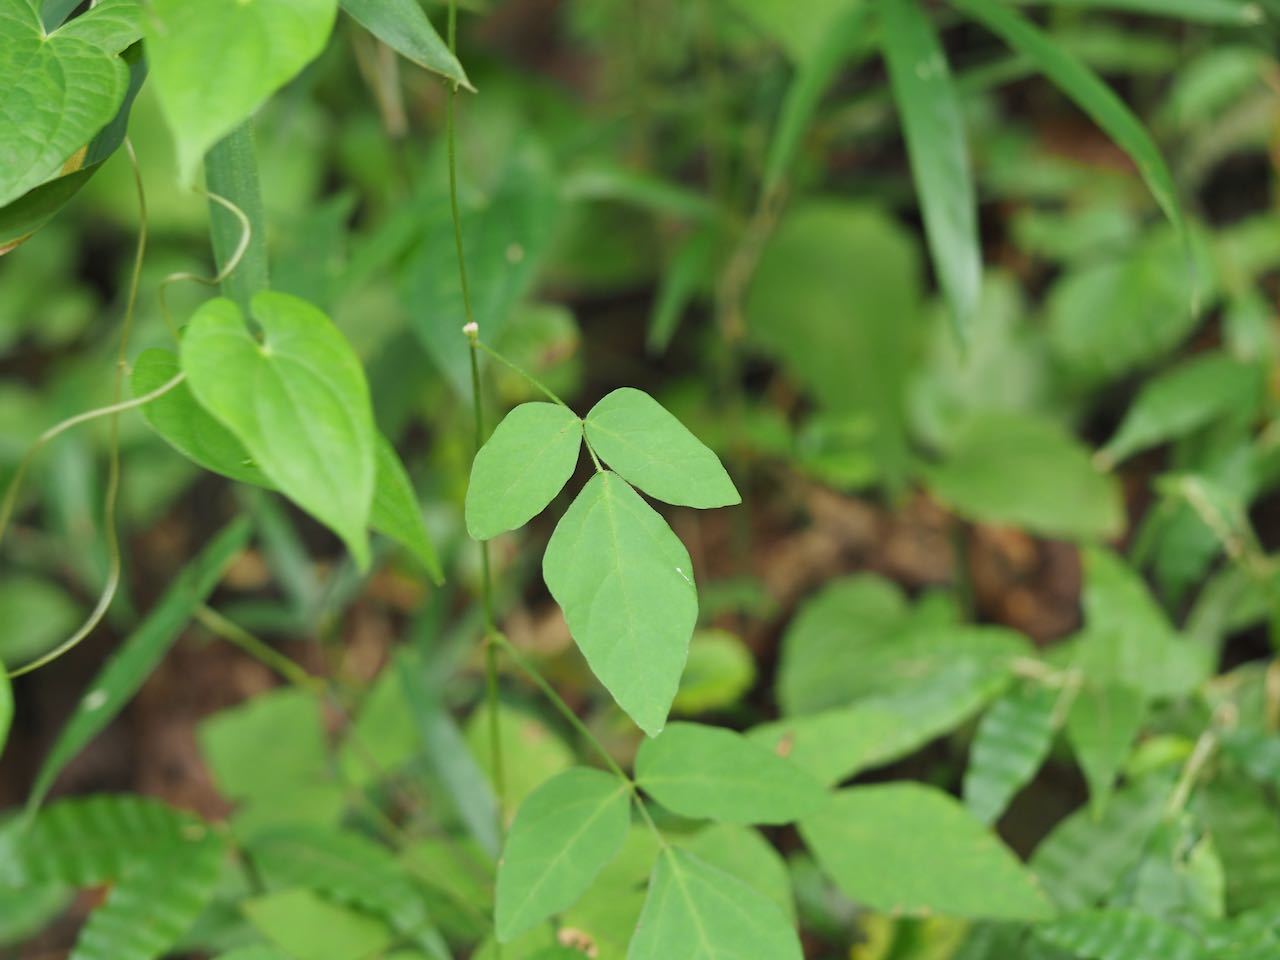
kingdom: Plantae
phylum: Tracheophyta
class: Magnoliopsida
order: Fabales
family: Fabaceae
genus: Hylodesmum
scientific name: Hylodesmum podocarpum
